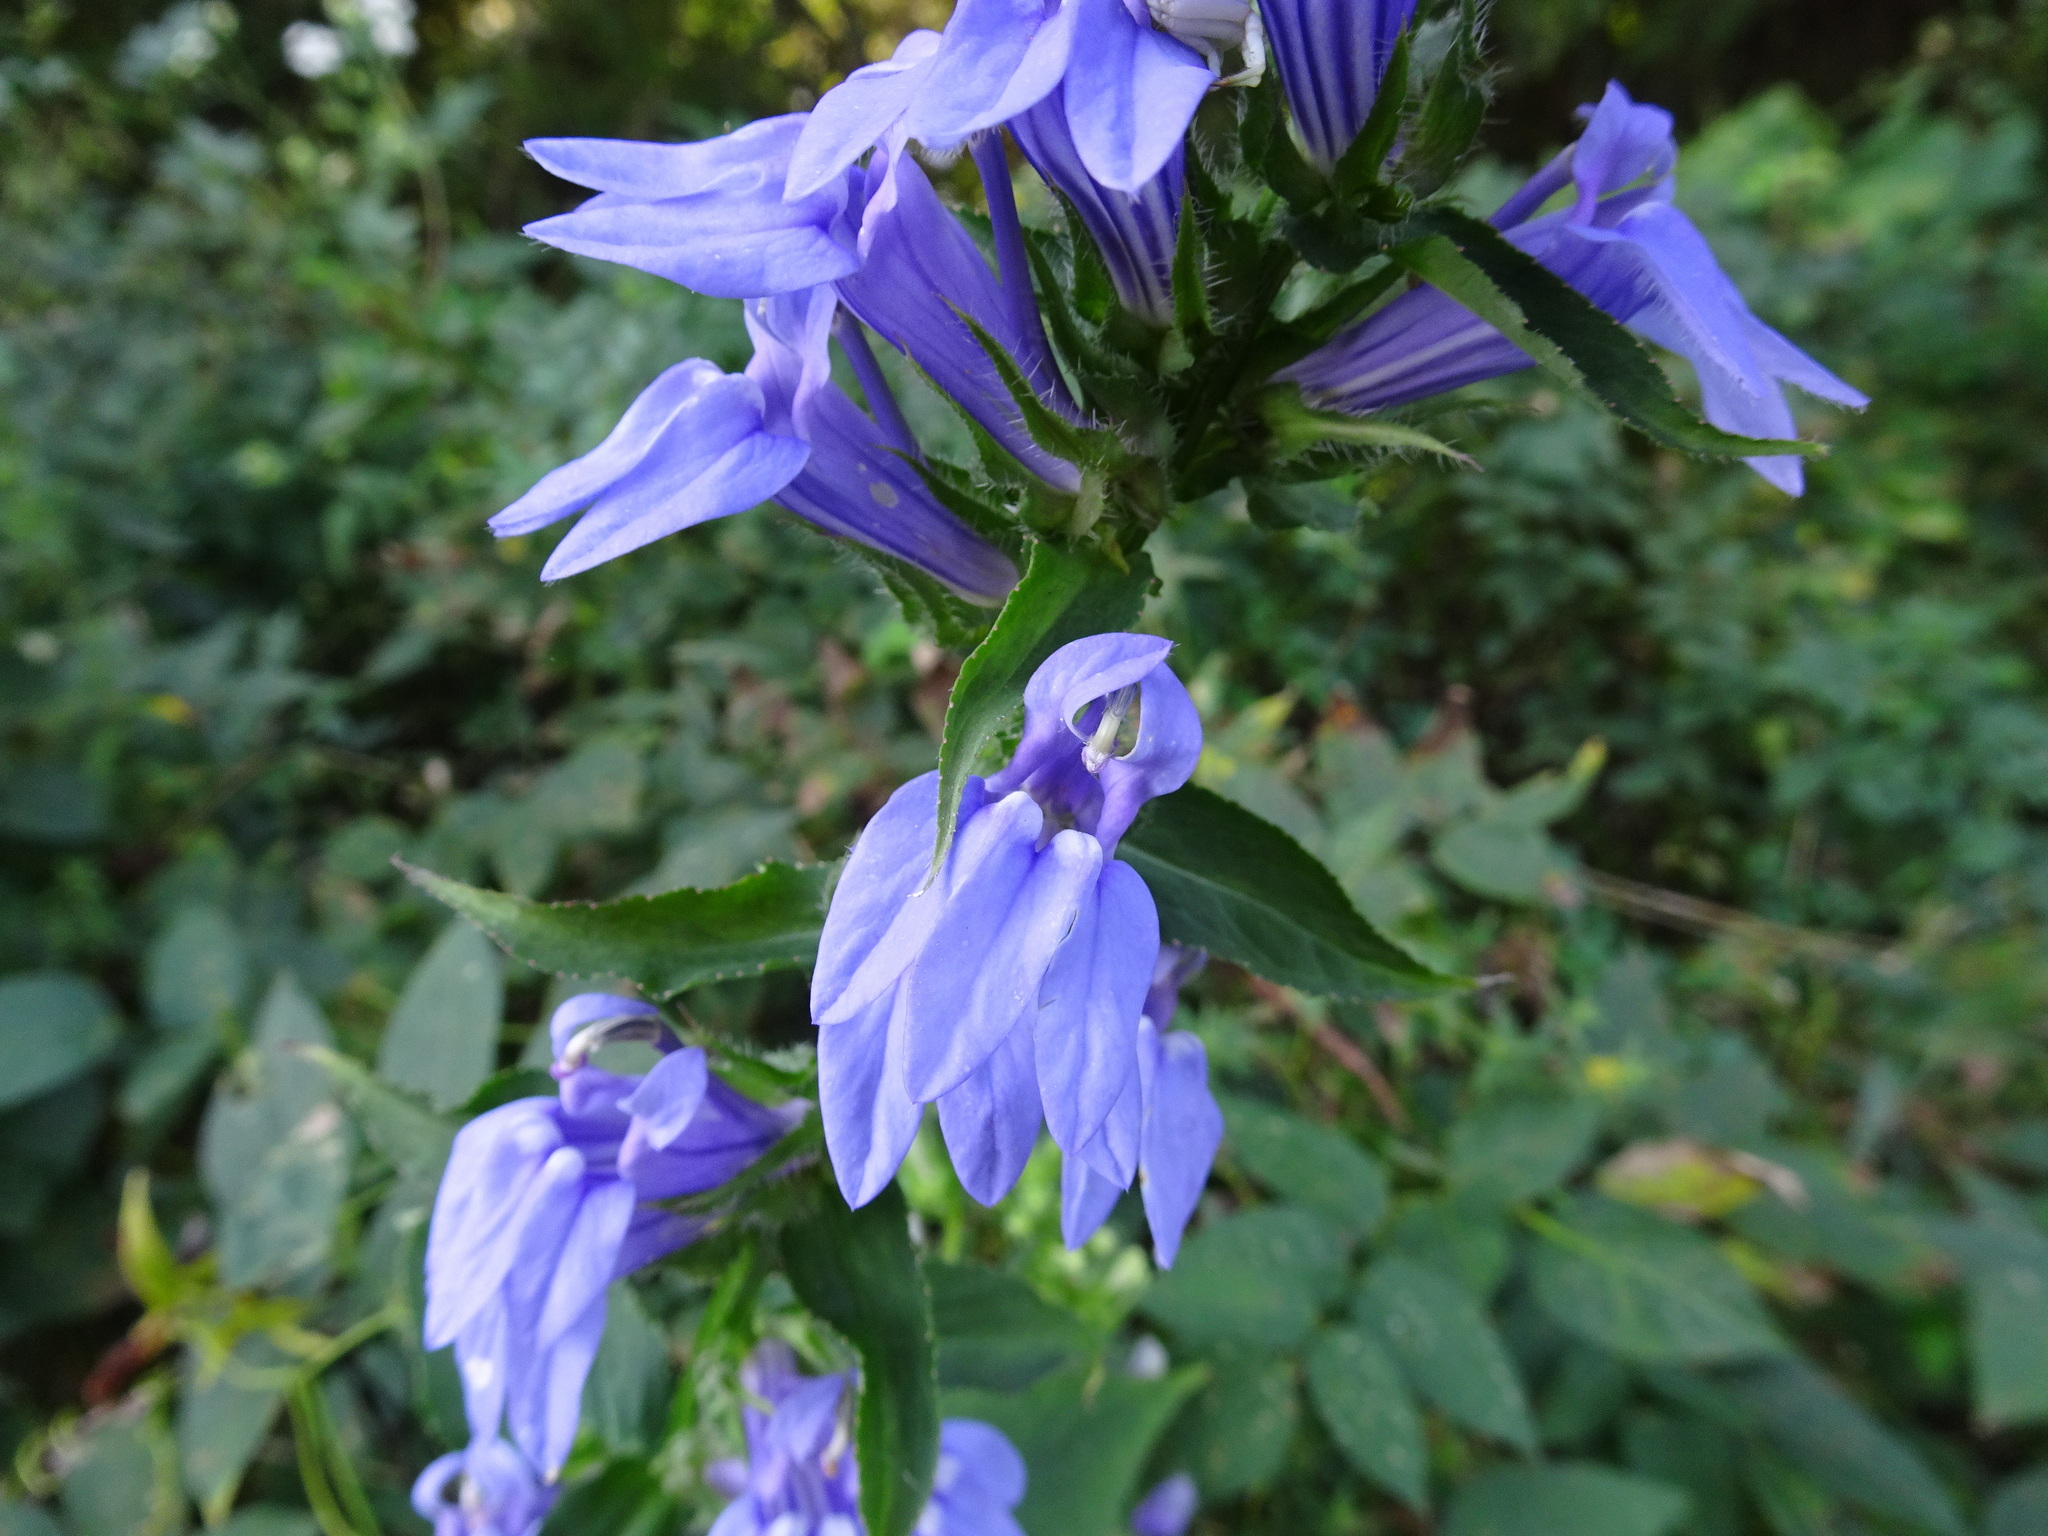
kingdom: Plantae
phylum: Tracheophyta
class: Magnoliopsida
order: Asterales
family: Campanulaceae
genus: Lobelia
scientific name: Lobelia siphilitica
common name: Great lobelia
